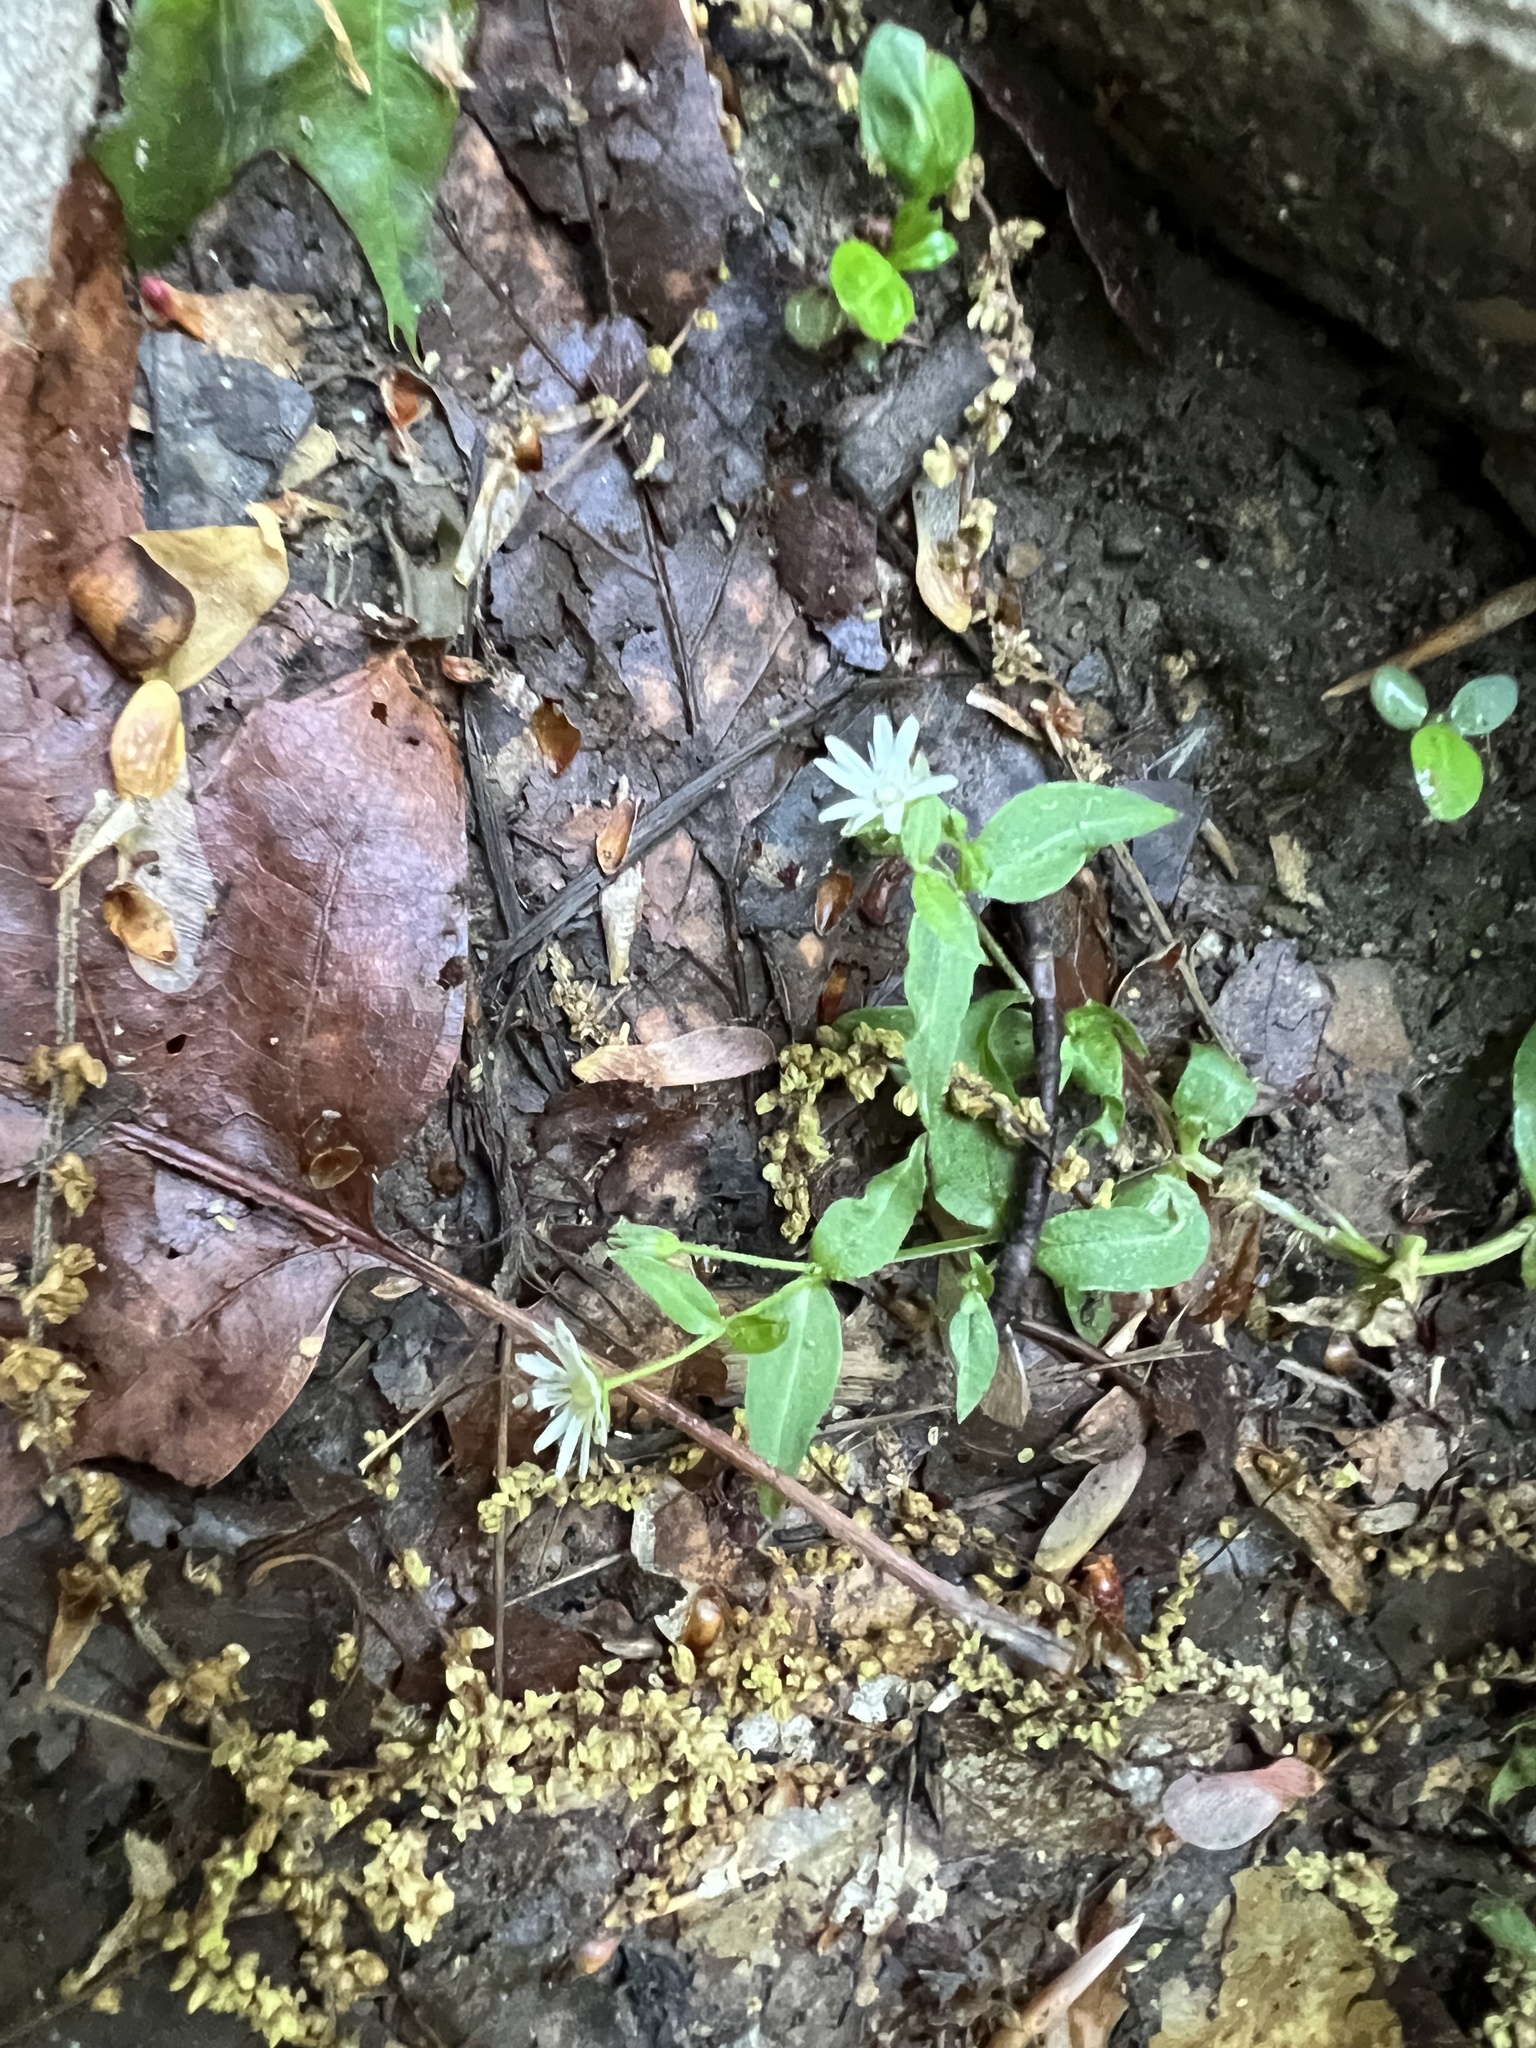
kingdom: Plantae
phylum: Tracheophyta
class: Magnoliopsida
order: Caryophyllales
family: Caryophyllaceae
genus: Stellaria
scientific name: Stellaria pubera
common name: Star chickweed
